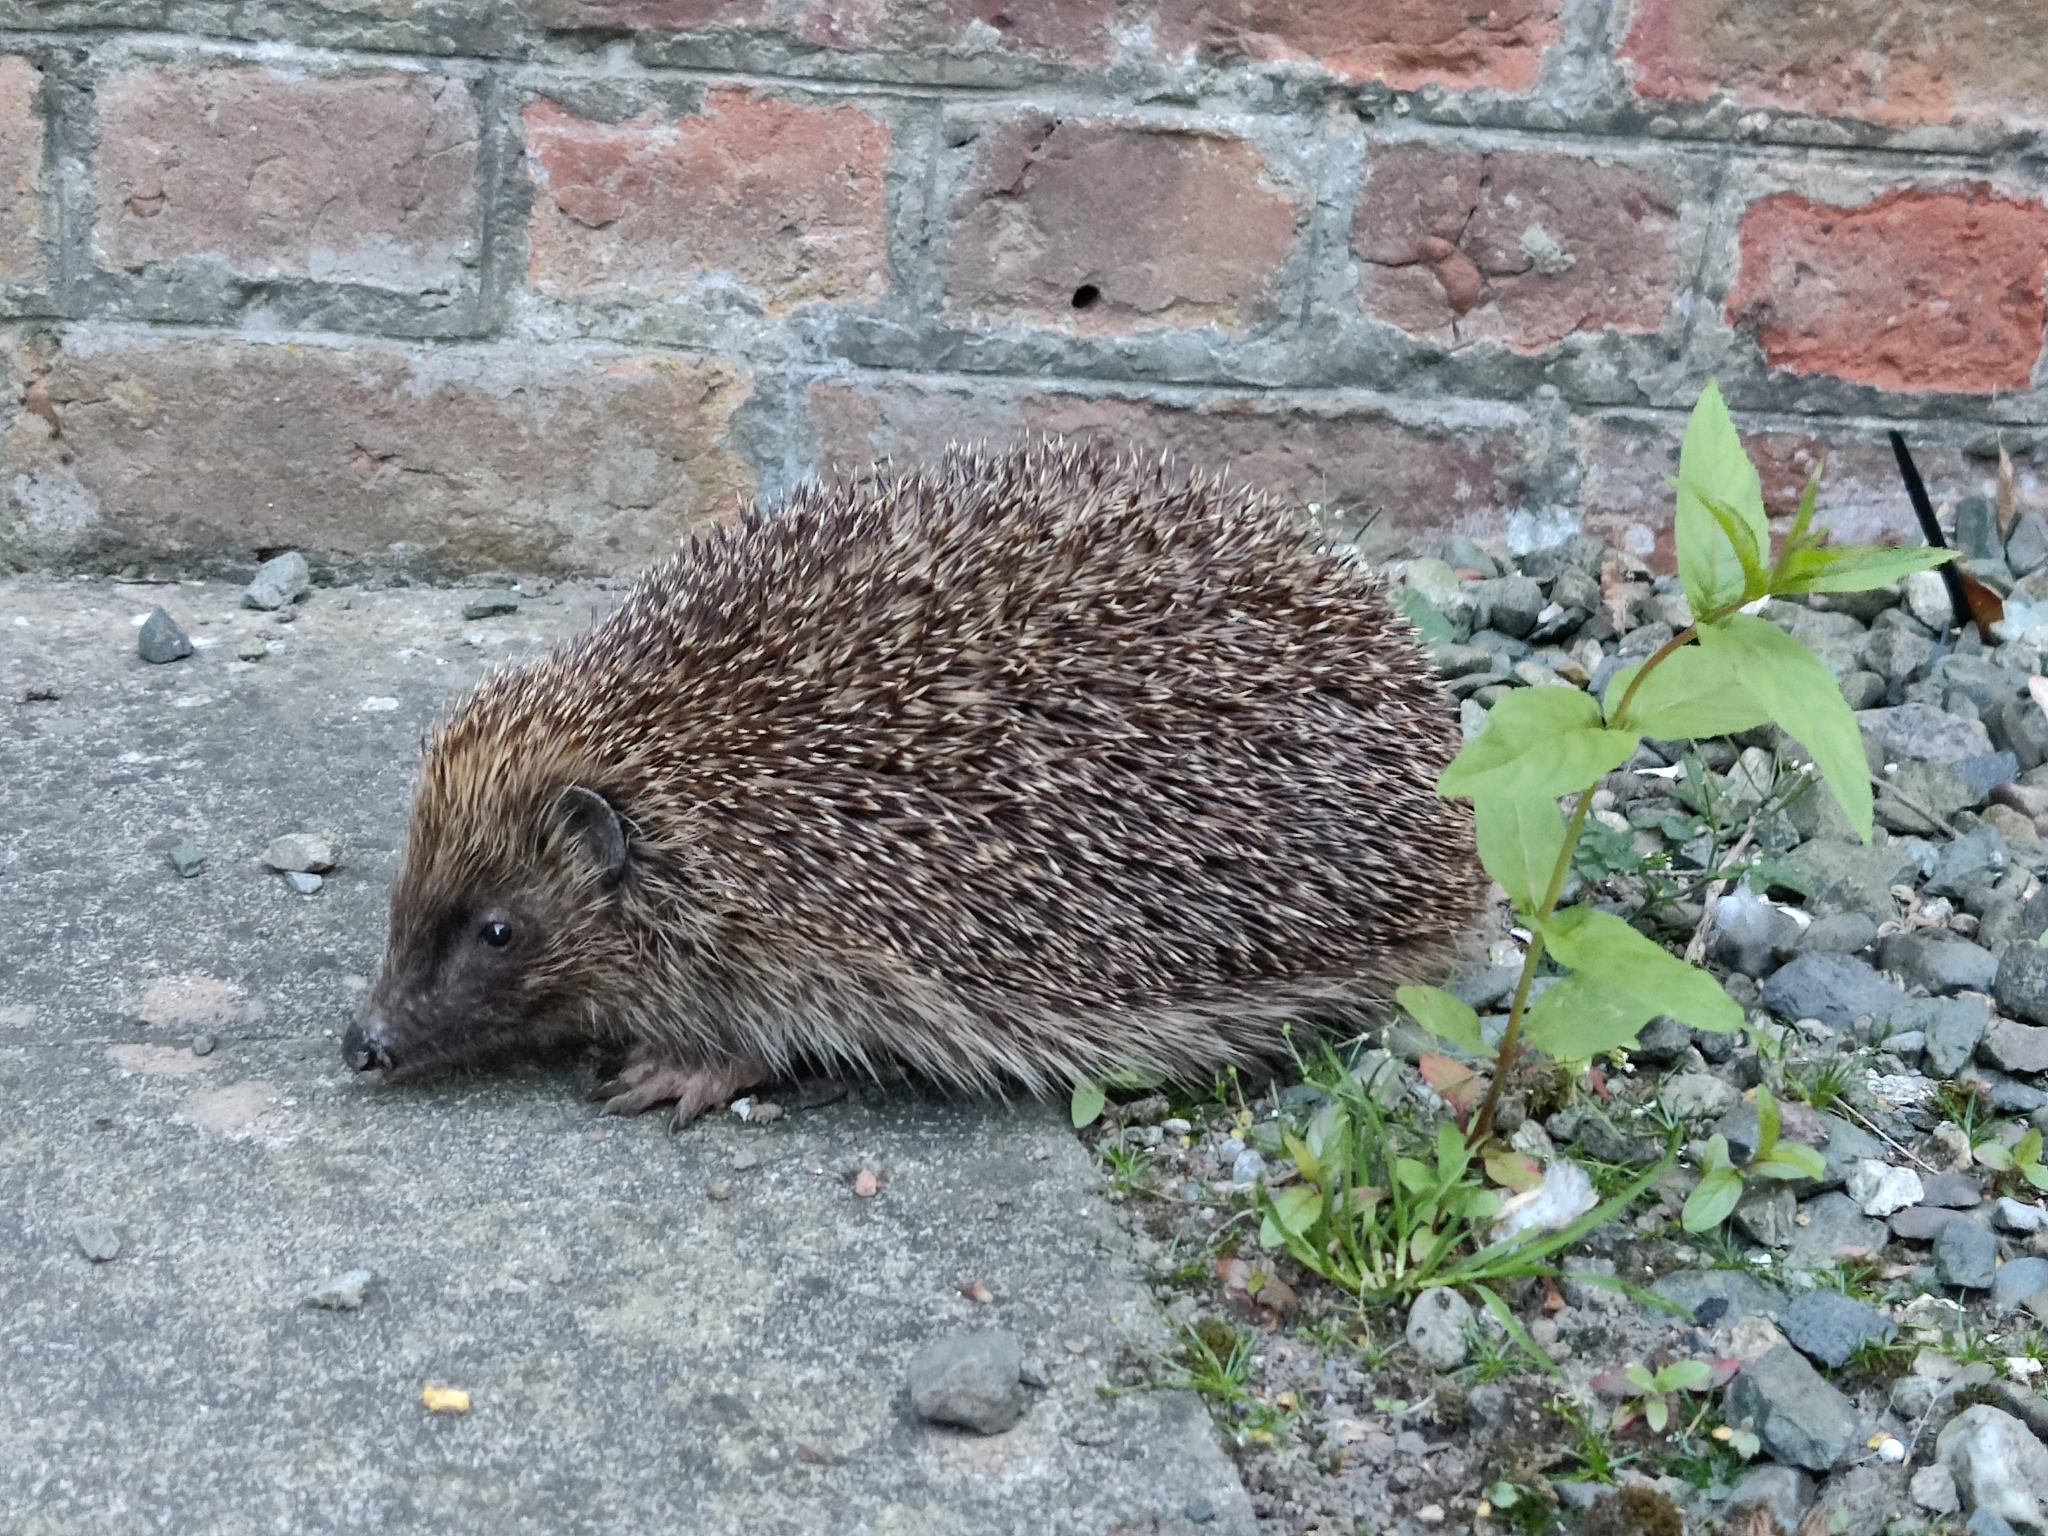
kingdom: Animalia
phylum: Chordata
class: Mammalia
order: Erinaceomorpha
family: Erinaceidae
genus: Erinaceus
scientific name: Erinaceus europaeus
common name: West european hedgehog
